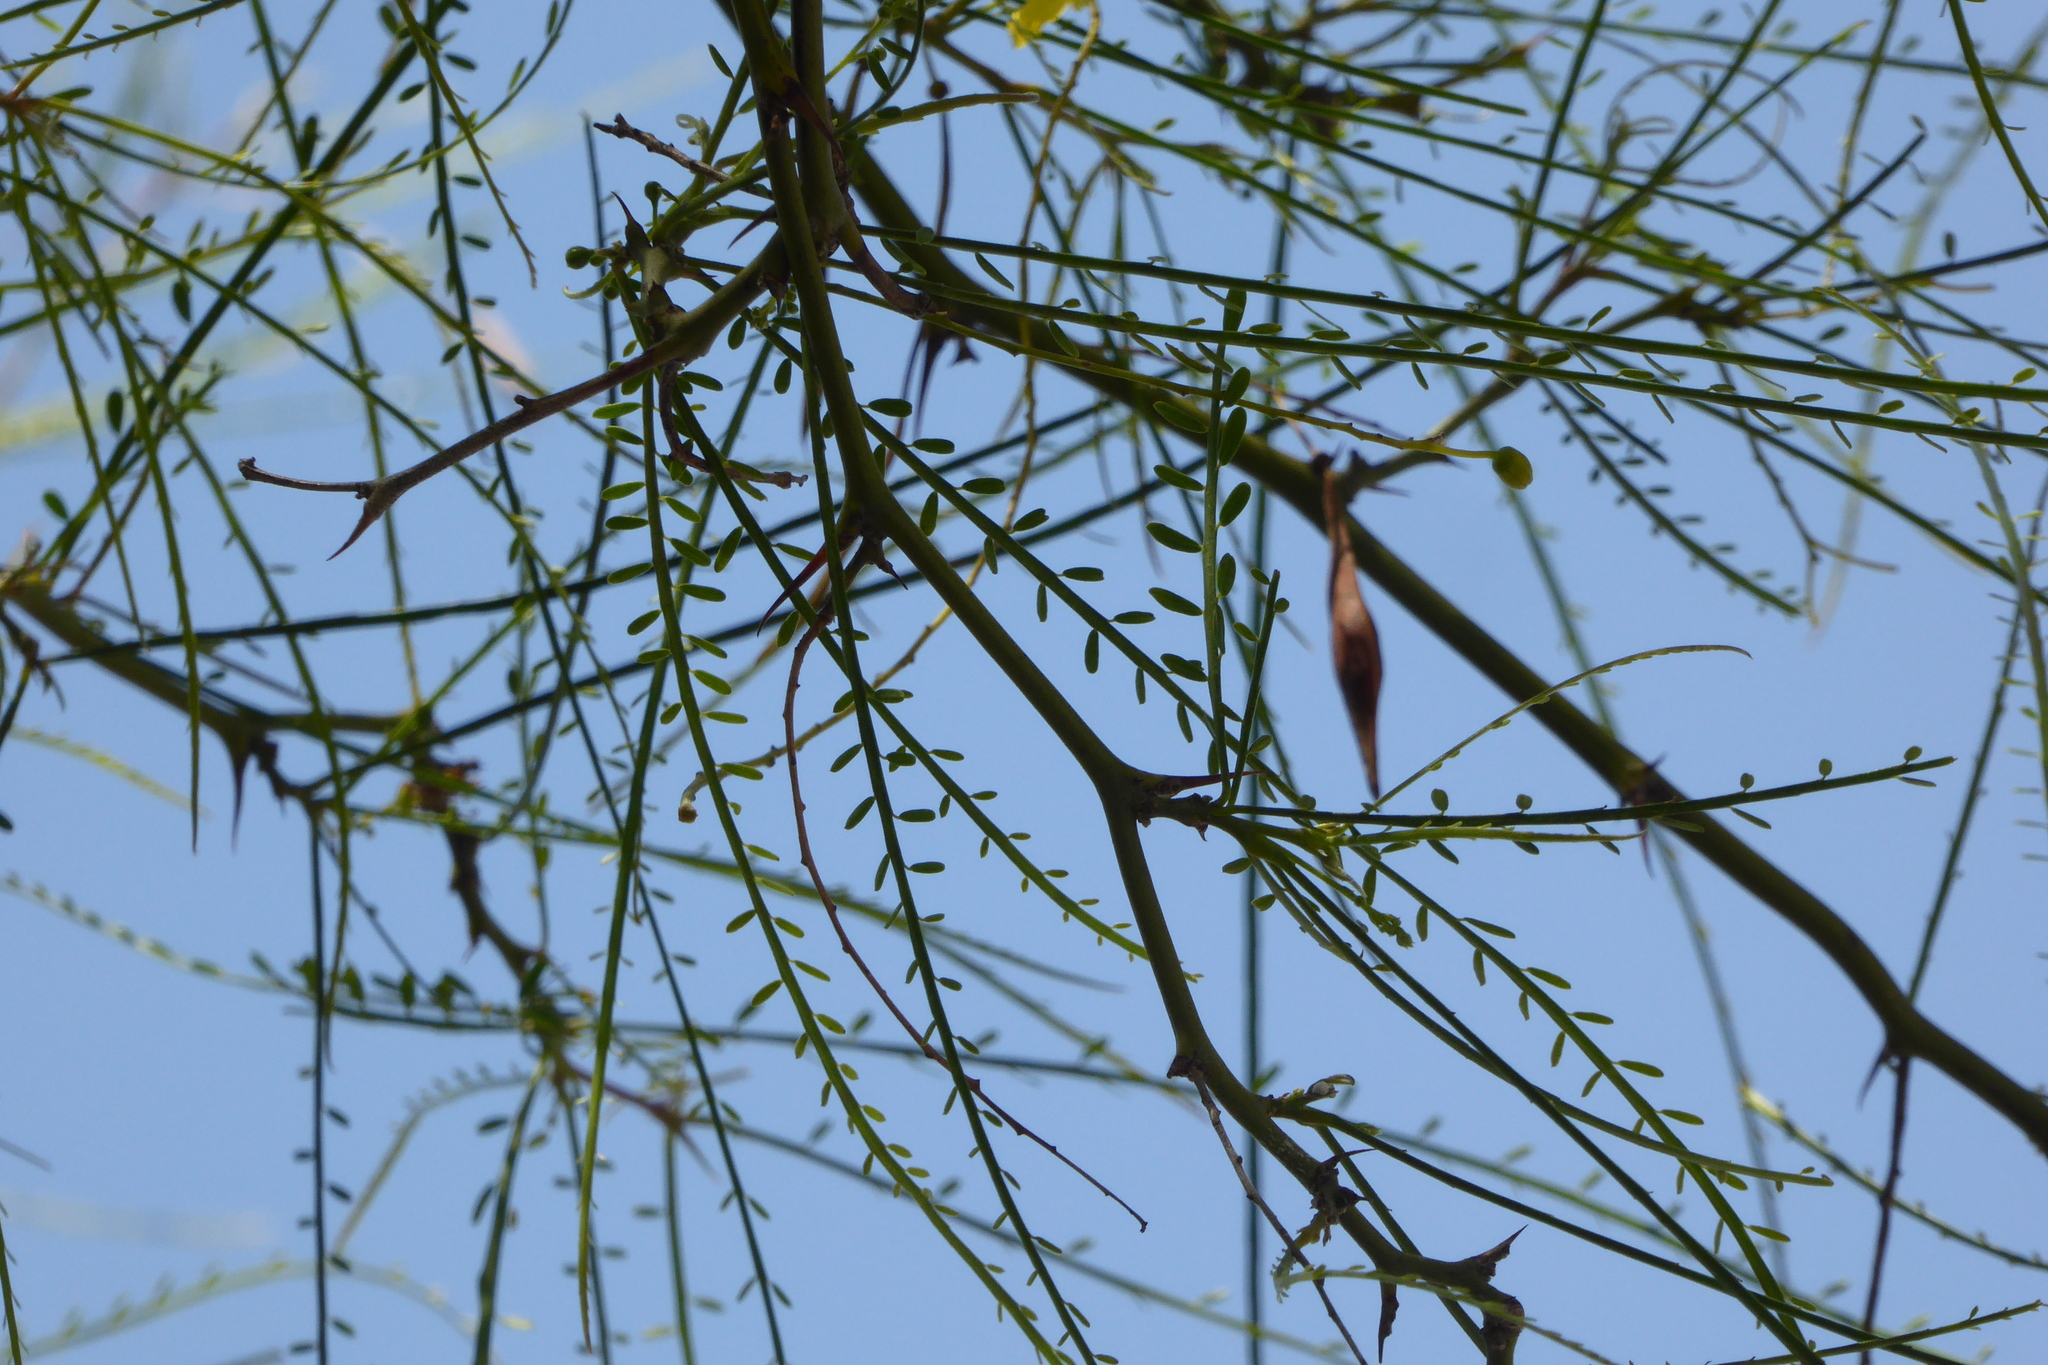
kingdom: Plantae
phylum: Tracheophyta
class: Magnoliopsida
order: Fabales
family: Fabaceae
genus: Parkinsonia
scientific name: Parkinsonia aculeata
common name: Jerusalem thorn
